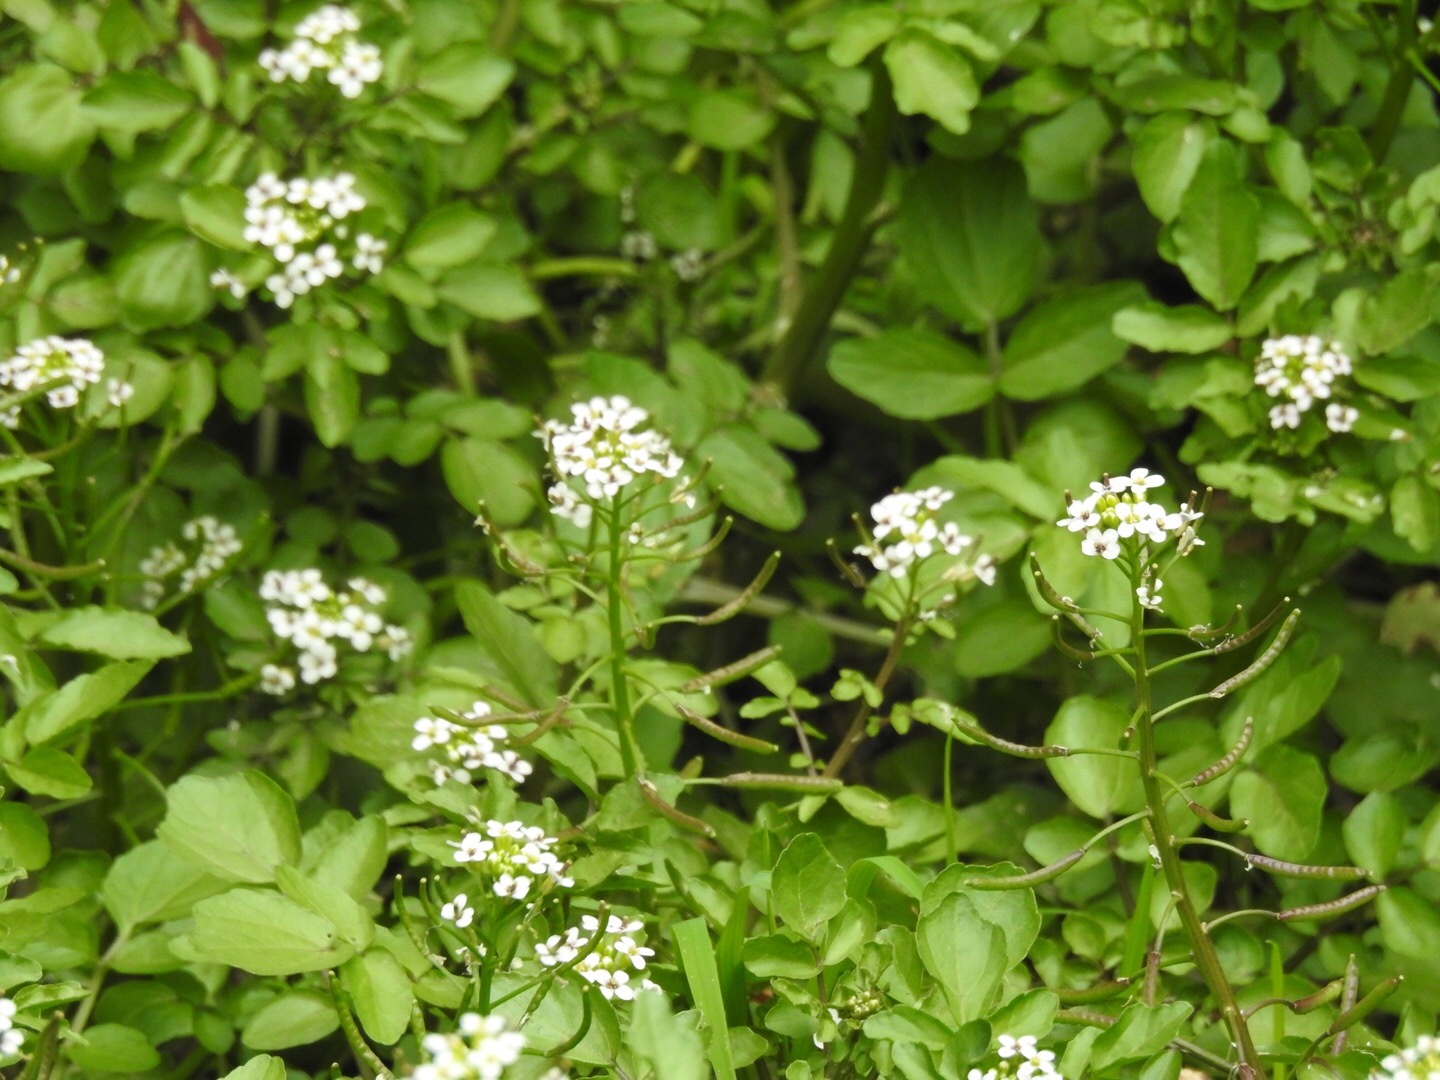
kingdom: Plantae
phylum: Tracheophyta
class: Magnoliopsida
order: Brassicales
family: Brassicaceae
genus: Nasturtium
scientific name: Nasturtium officinale
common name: Watercress
